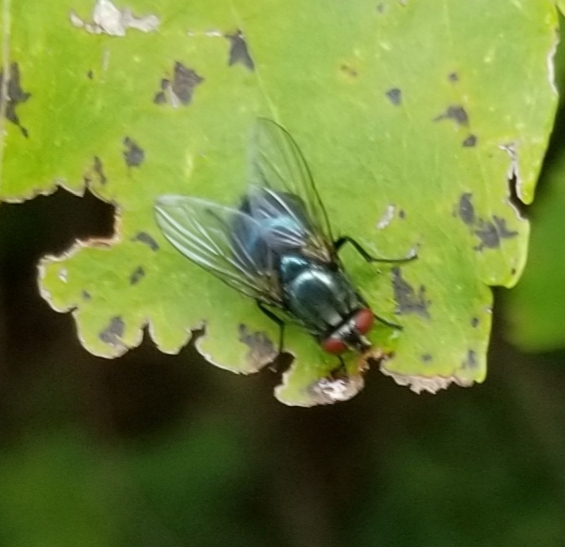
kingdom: Animalia
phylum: Arthropoda
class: Insecta
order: Diptera
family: Calliphoridae
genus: Cochliomyia
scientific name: Cochliomyia macellaria
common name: Secondary screwworm
